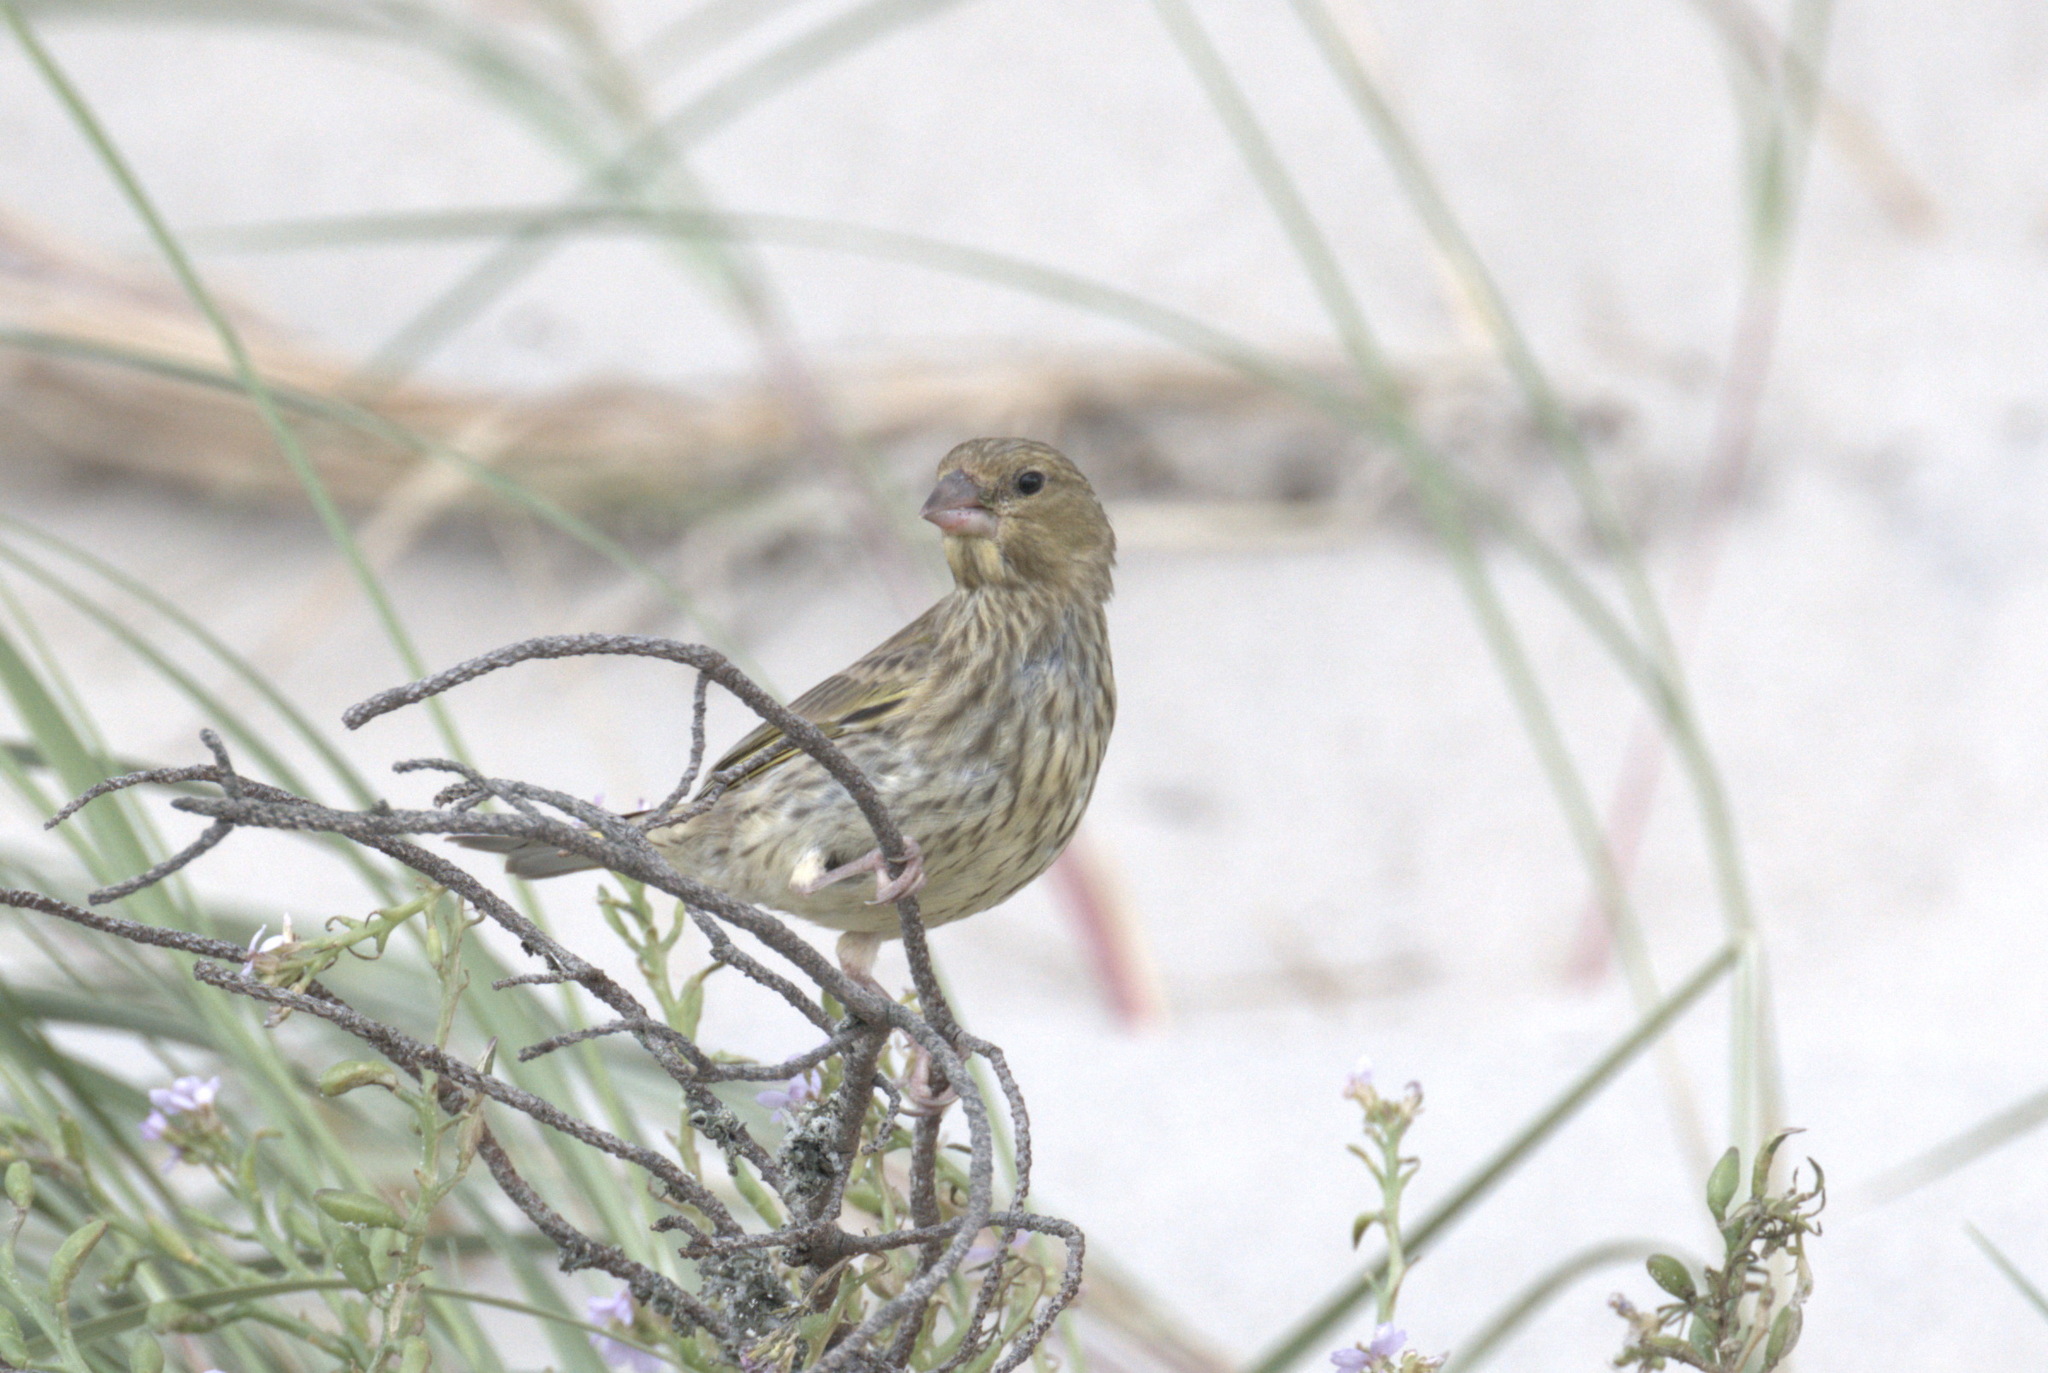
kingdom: Plantae
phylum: Tracheophyta
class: Liliopsida
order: Poales
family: Poaceae
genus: Chloris
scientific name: Chloris chloris
